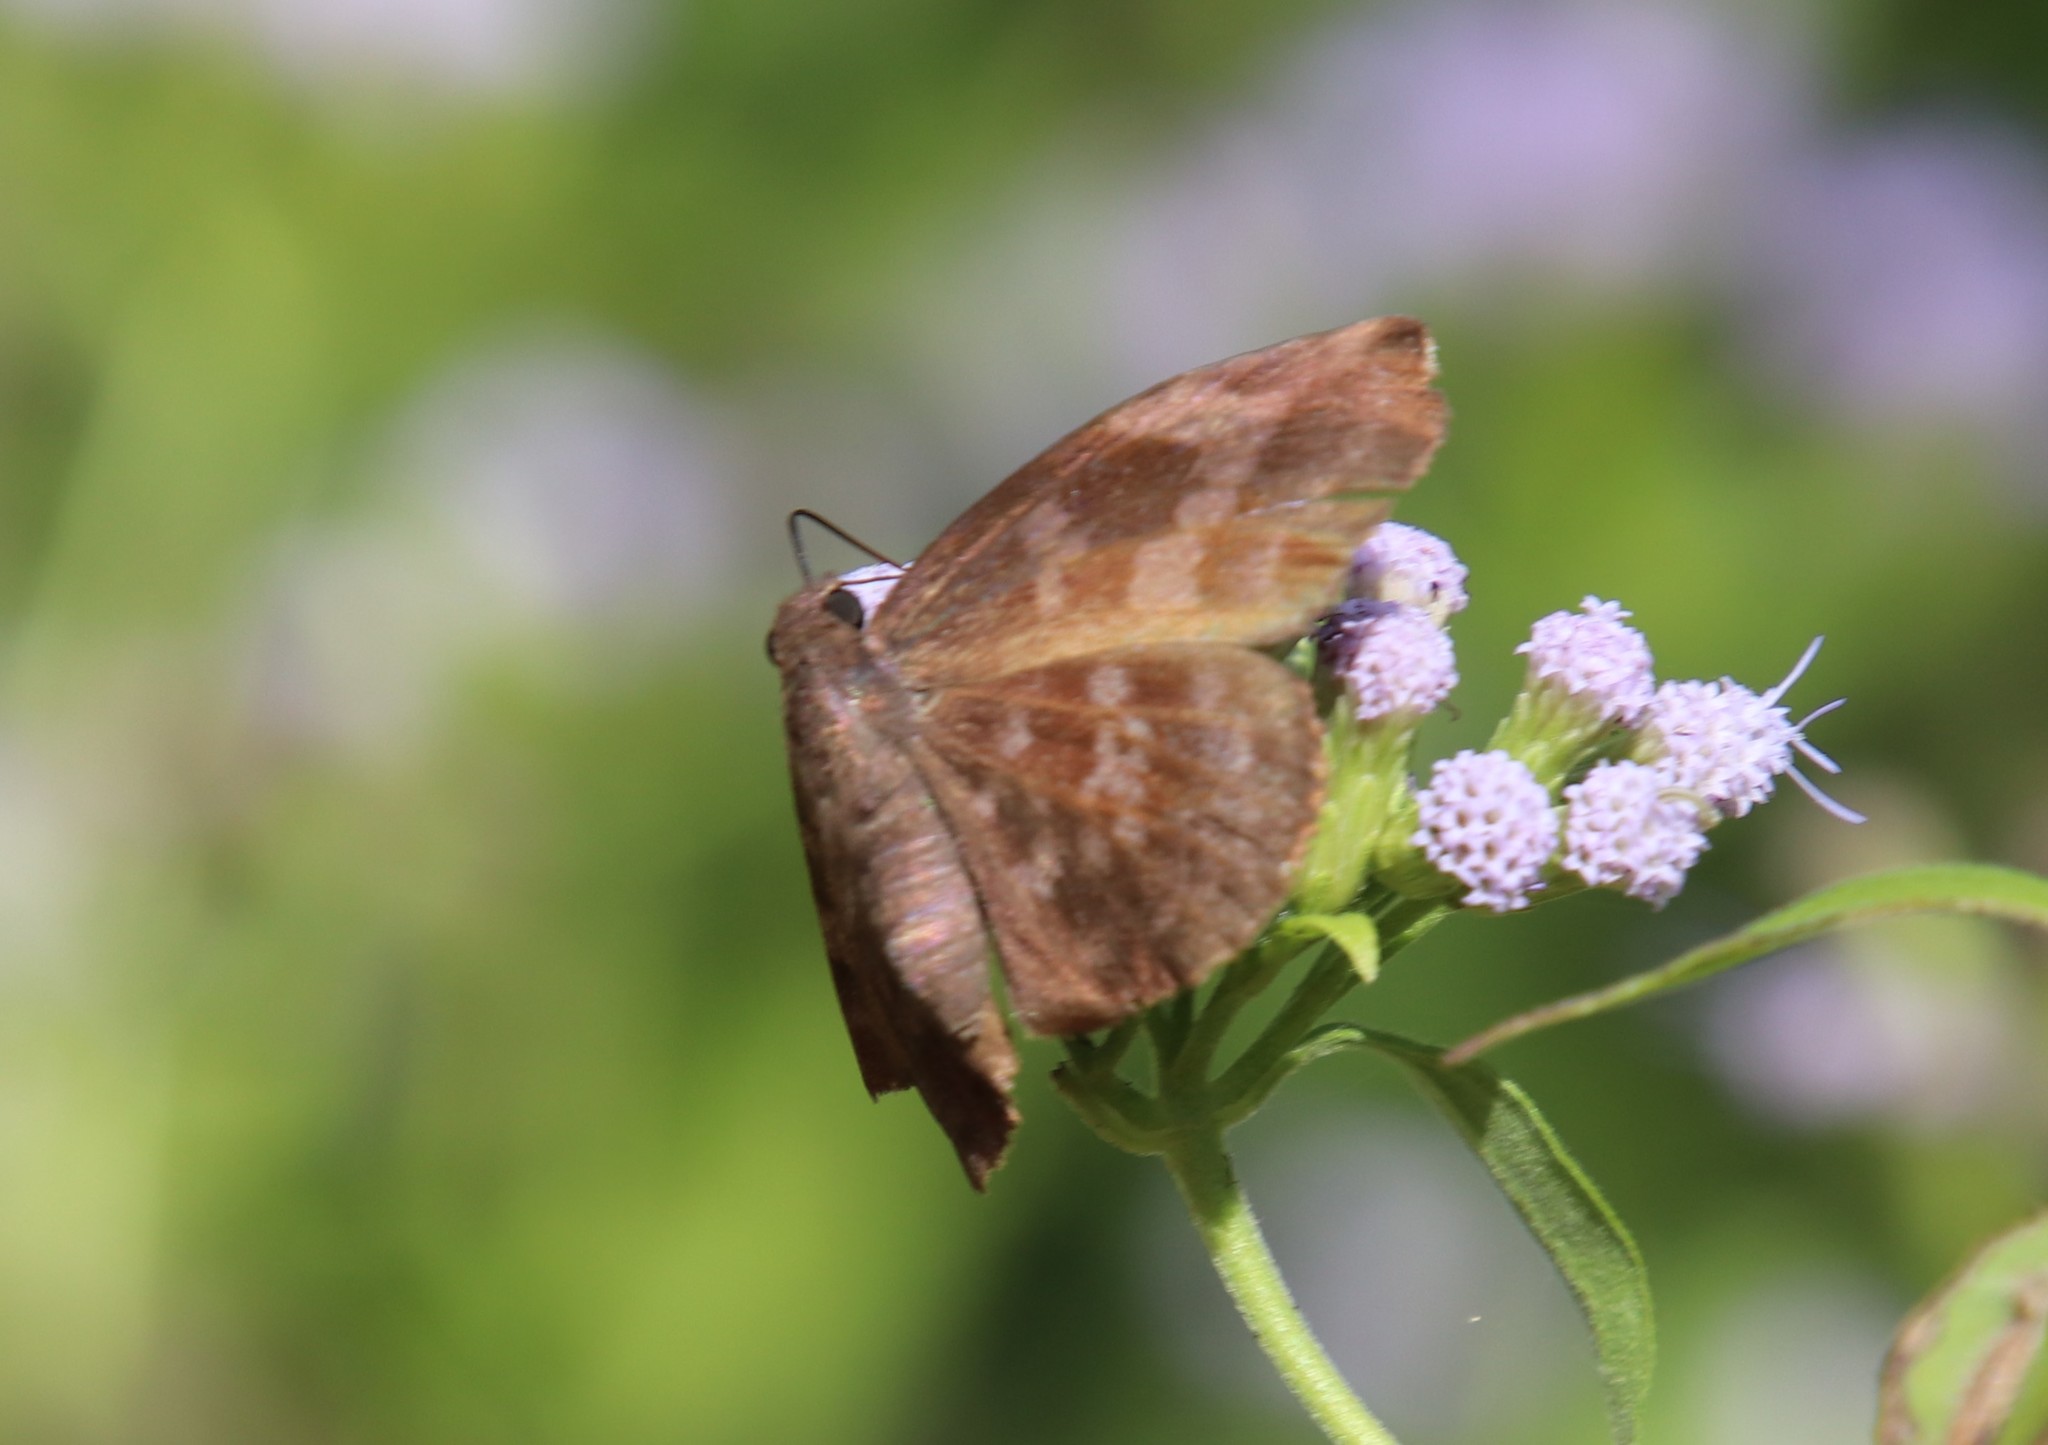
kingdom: Animalia
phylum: Arthropoda
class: Insecta
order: Lepidoptera
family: Hesperiidae
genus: Achlyodes
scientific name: Achlyodes thraso
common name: Sickle-winged skipper
